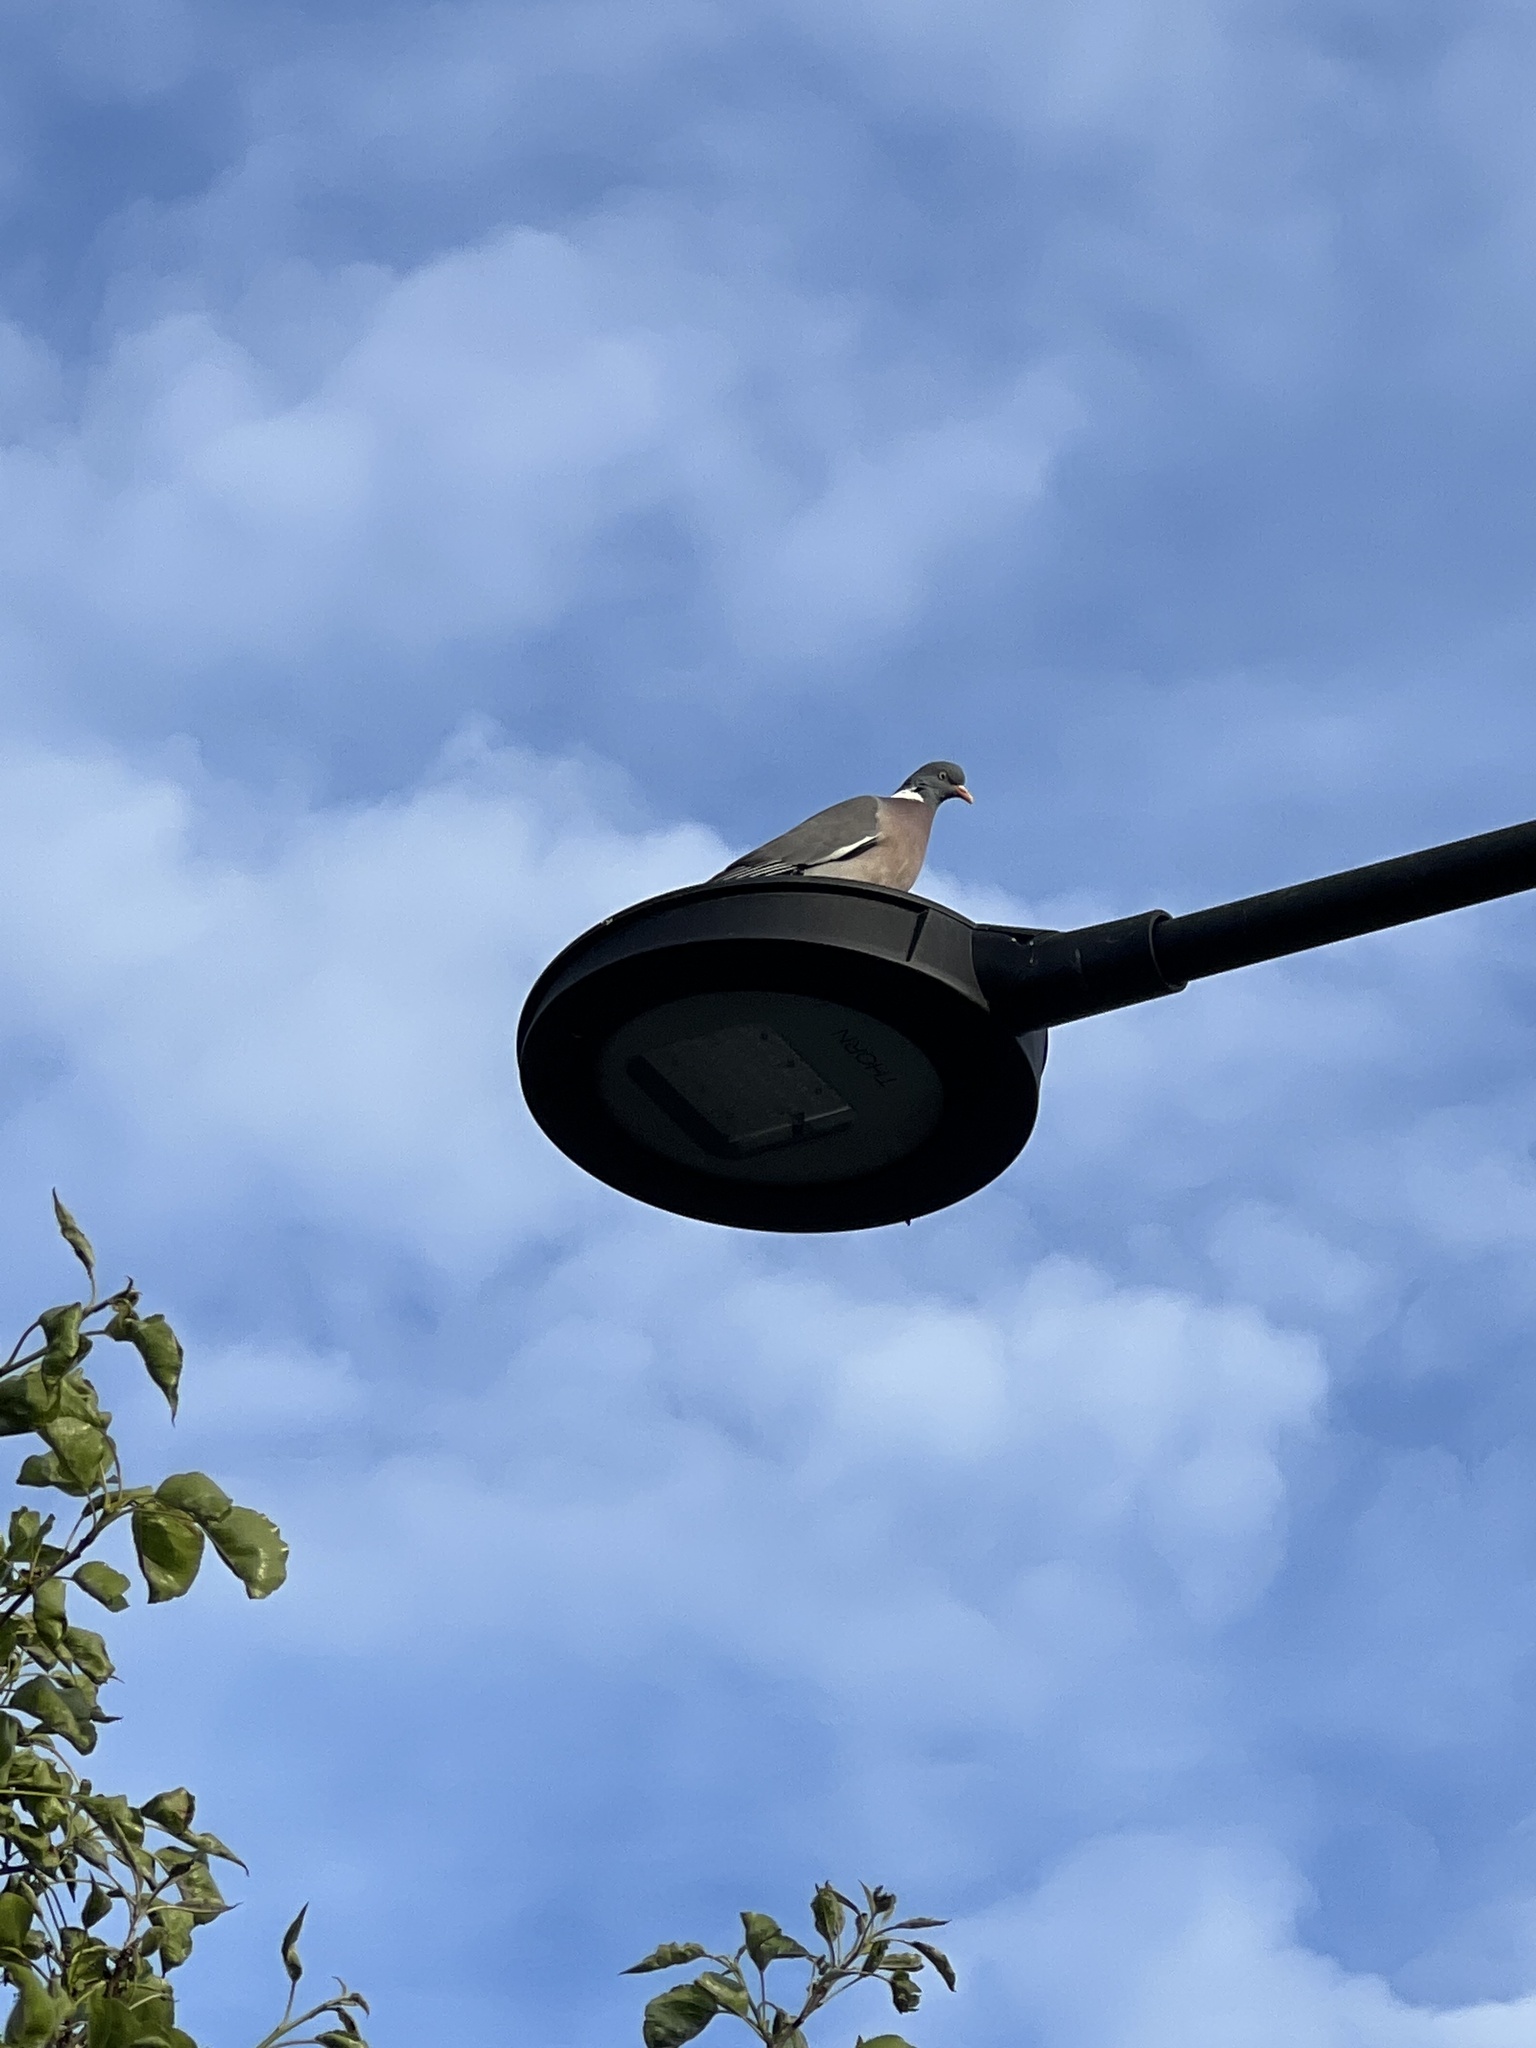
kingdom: Animalia
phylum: Chordata
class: Aves
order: Columbiformes
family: Columbidae
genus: Columba
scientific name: Columba palumbus
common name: Common wood pigeon
